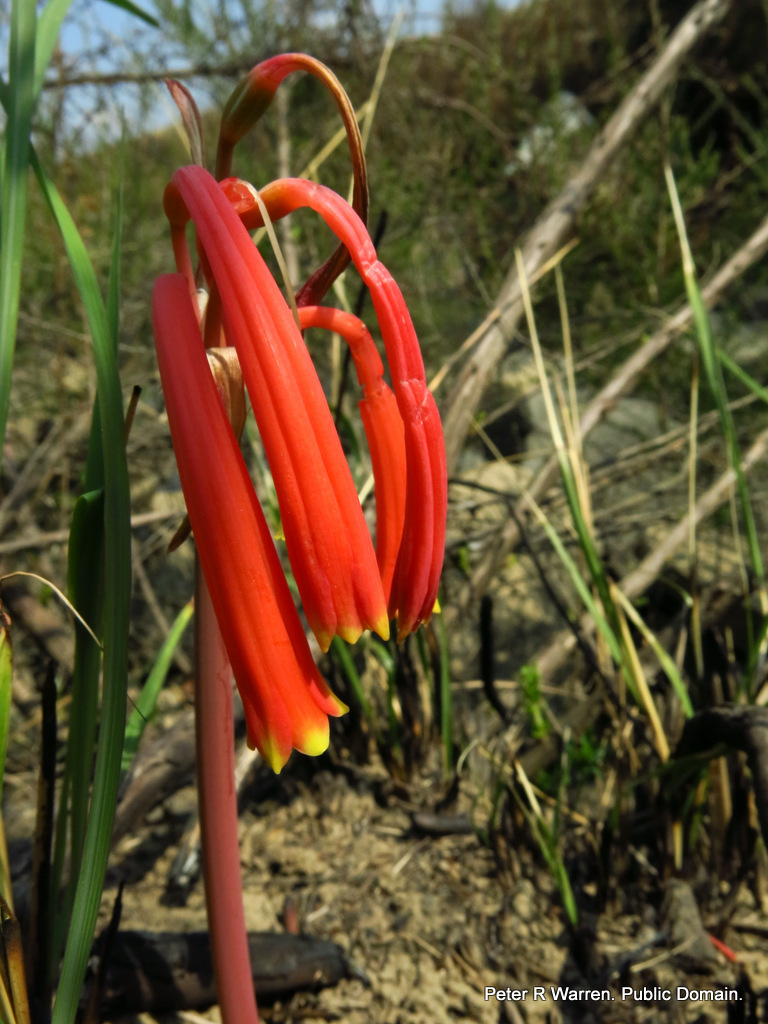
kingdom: Plantae
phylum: Tracheophyta
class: Liliopsida
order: Asparagales
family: Amaryllidaceae
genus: Cyrtanthus
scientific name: Cyrtanthus tuckii
